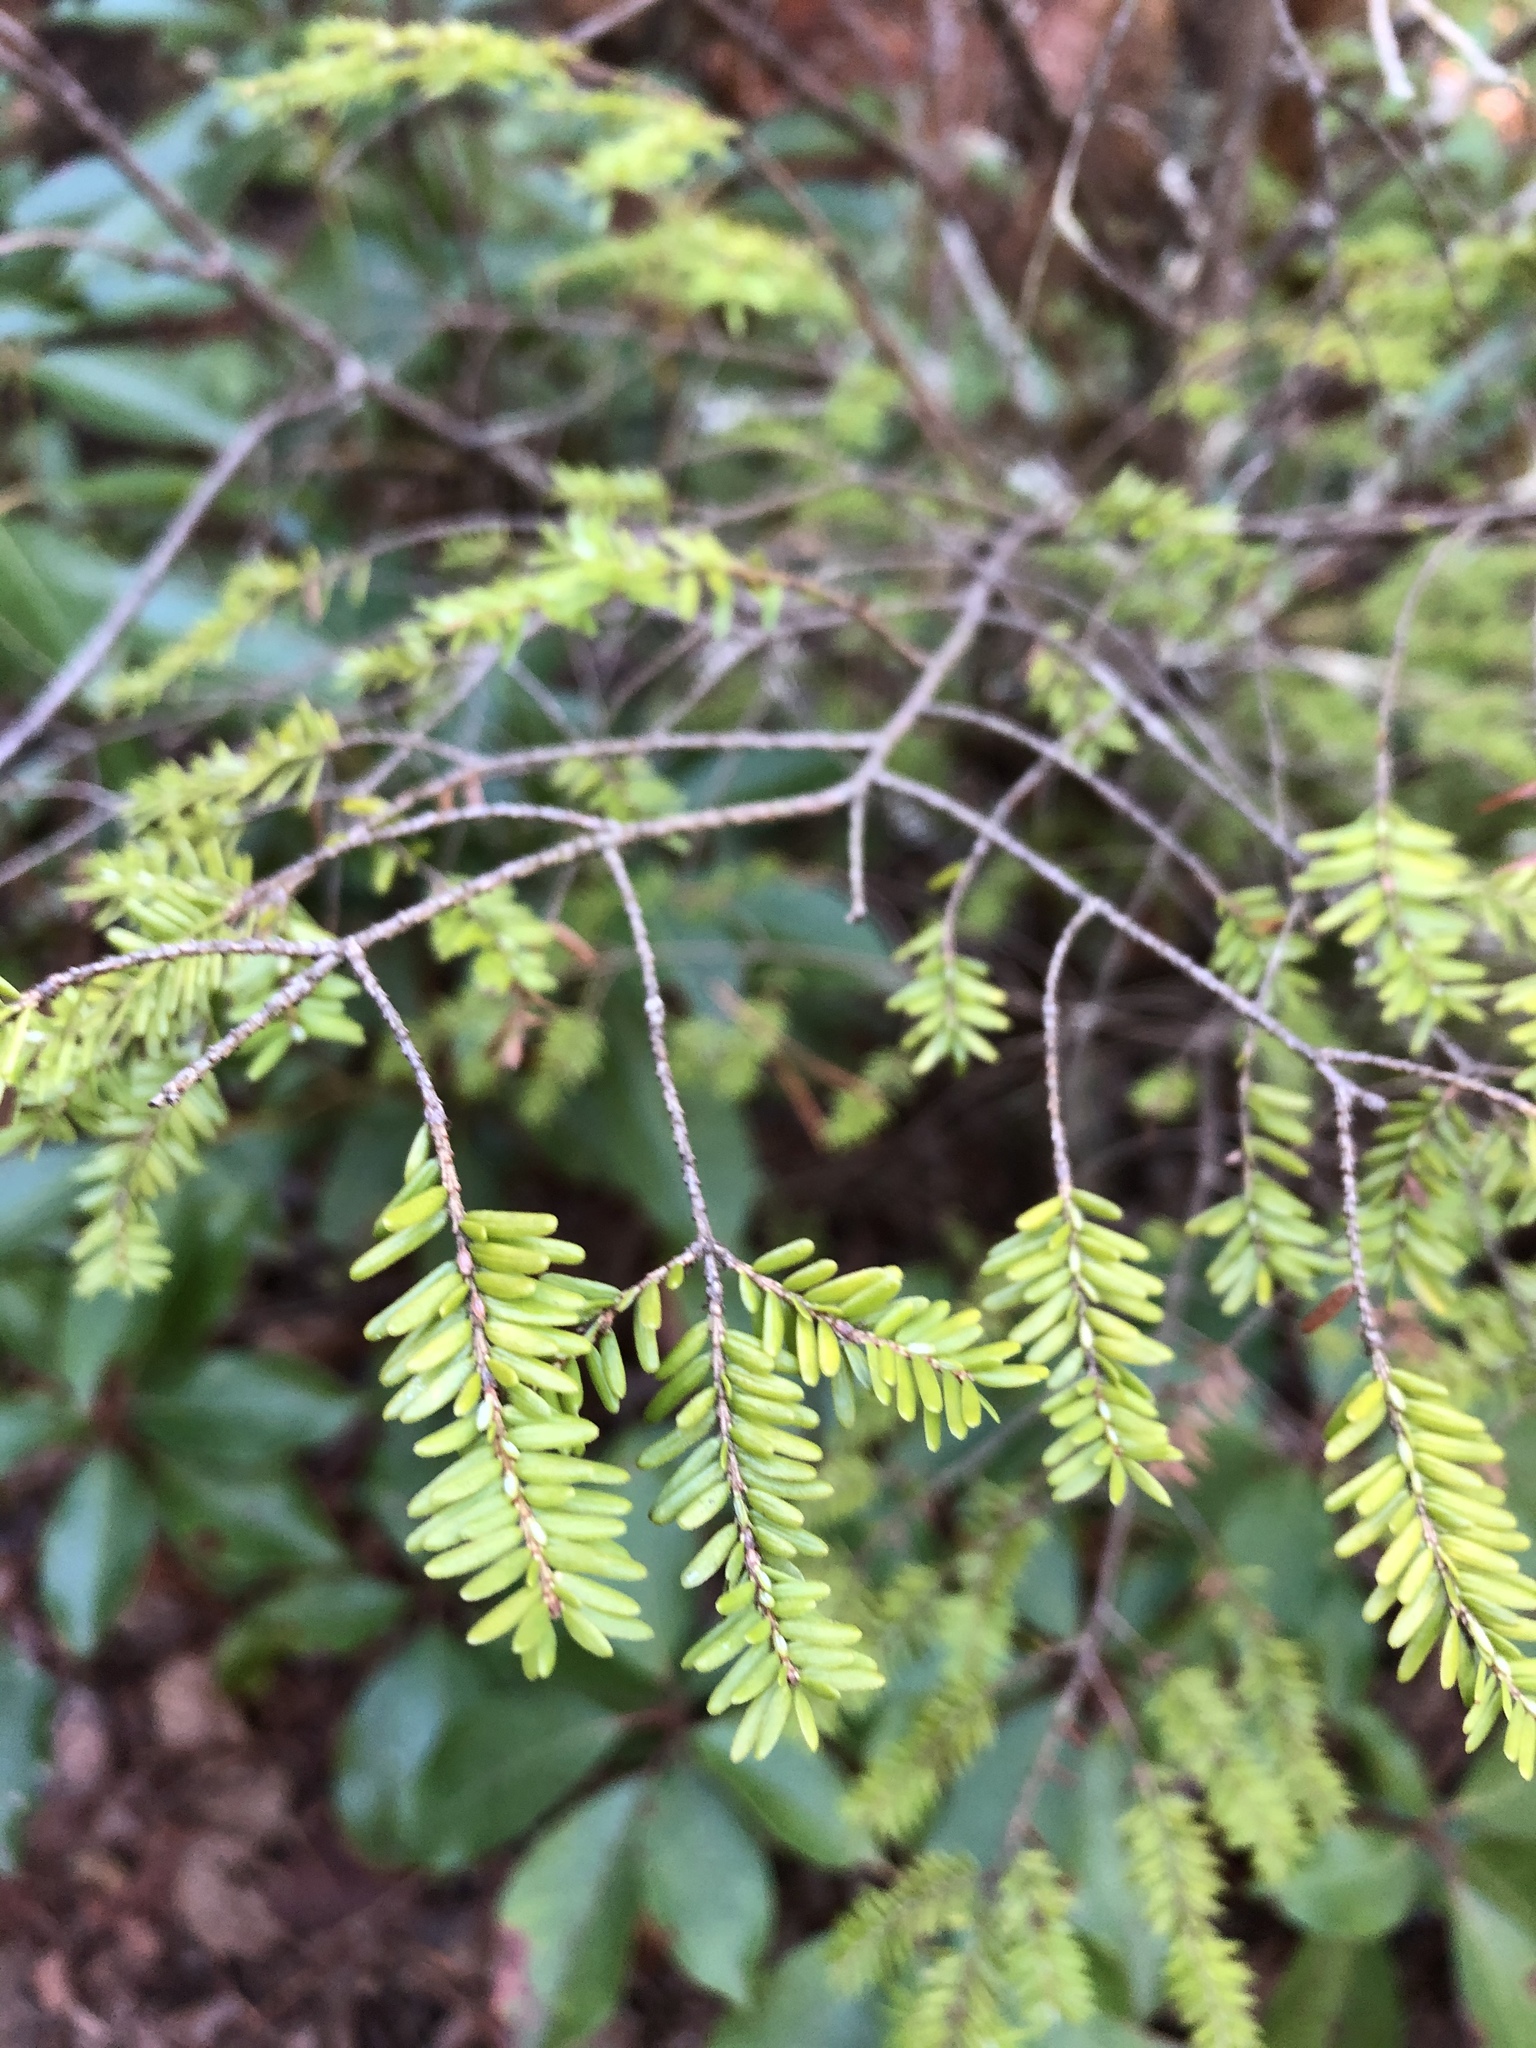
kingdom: Plantae
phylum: Tracheophyta
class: Pinopsida
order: Pinales
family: Pinaceae
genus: Tsuga
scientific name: Tsuga canadensis
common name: Eastern hemlock
